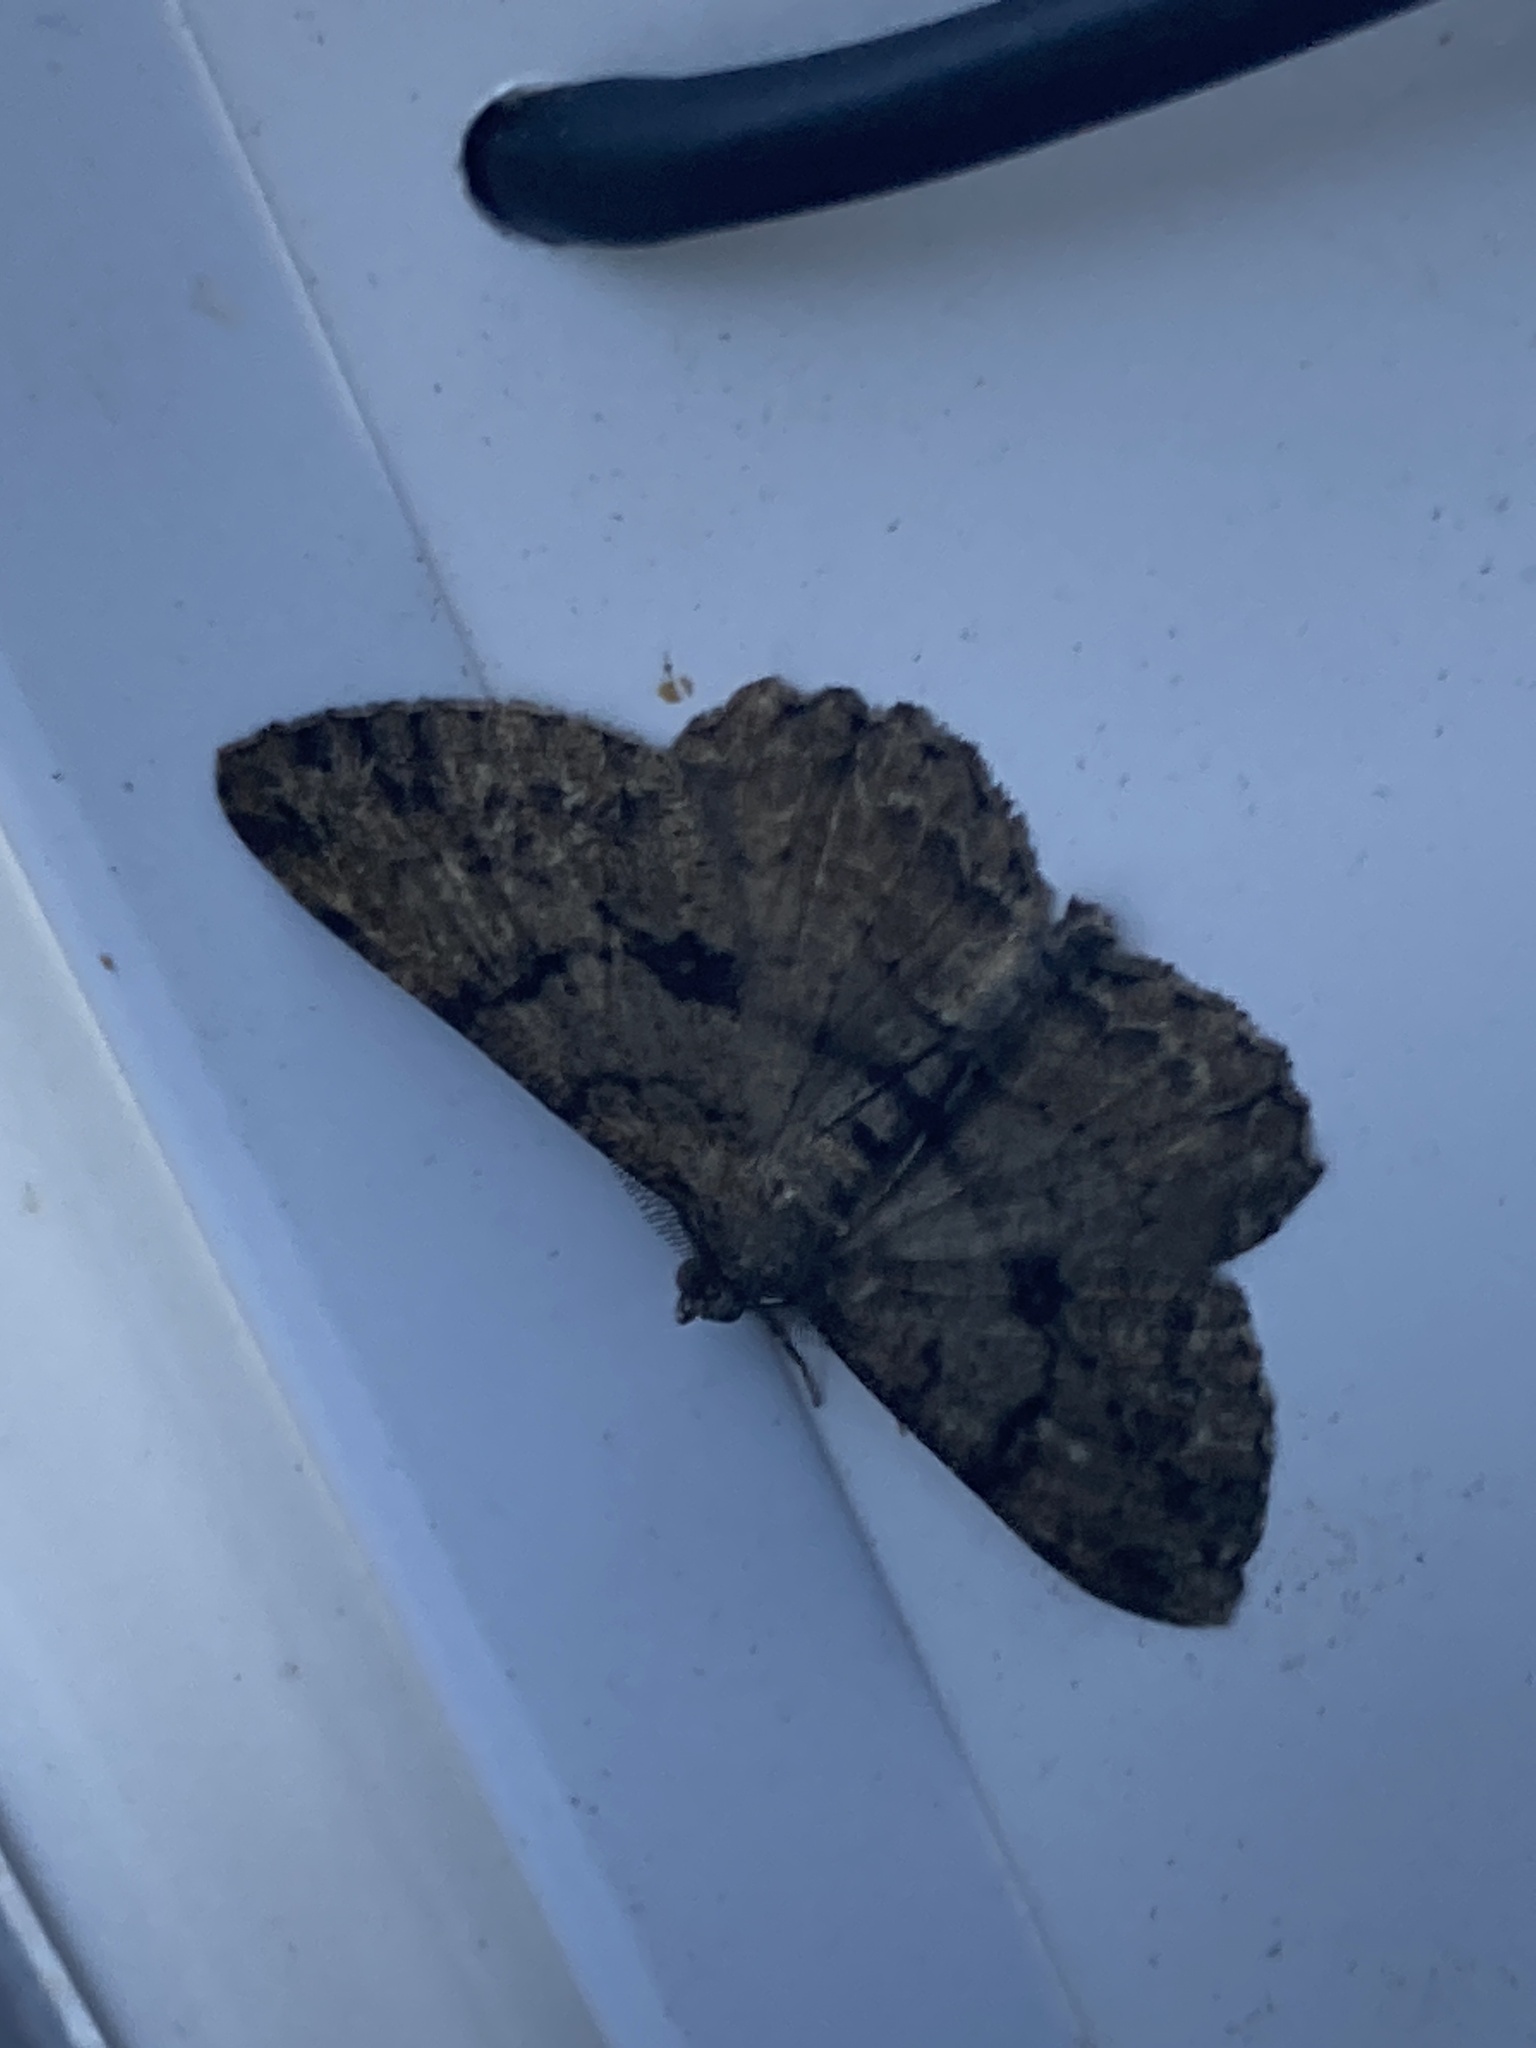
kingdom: Animalia
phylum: Arthropoda
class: Insecta
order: Lepidoptera
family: Geometridae
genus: Peribatodes
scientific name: Peribatodes rhomboidaria
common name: Willow beauty
